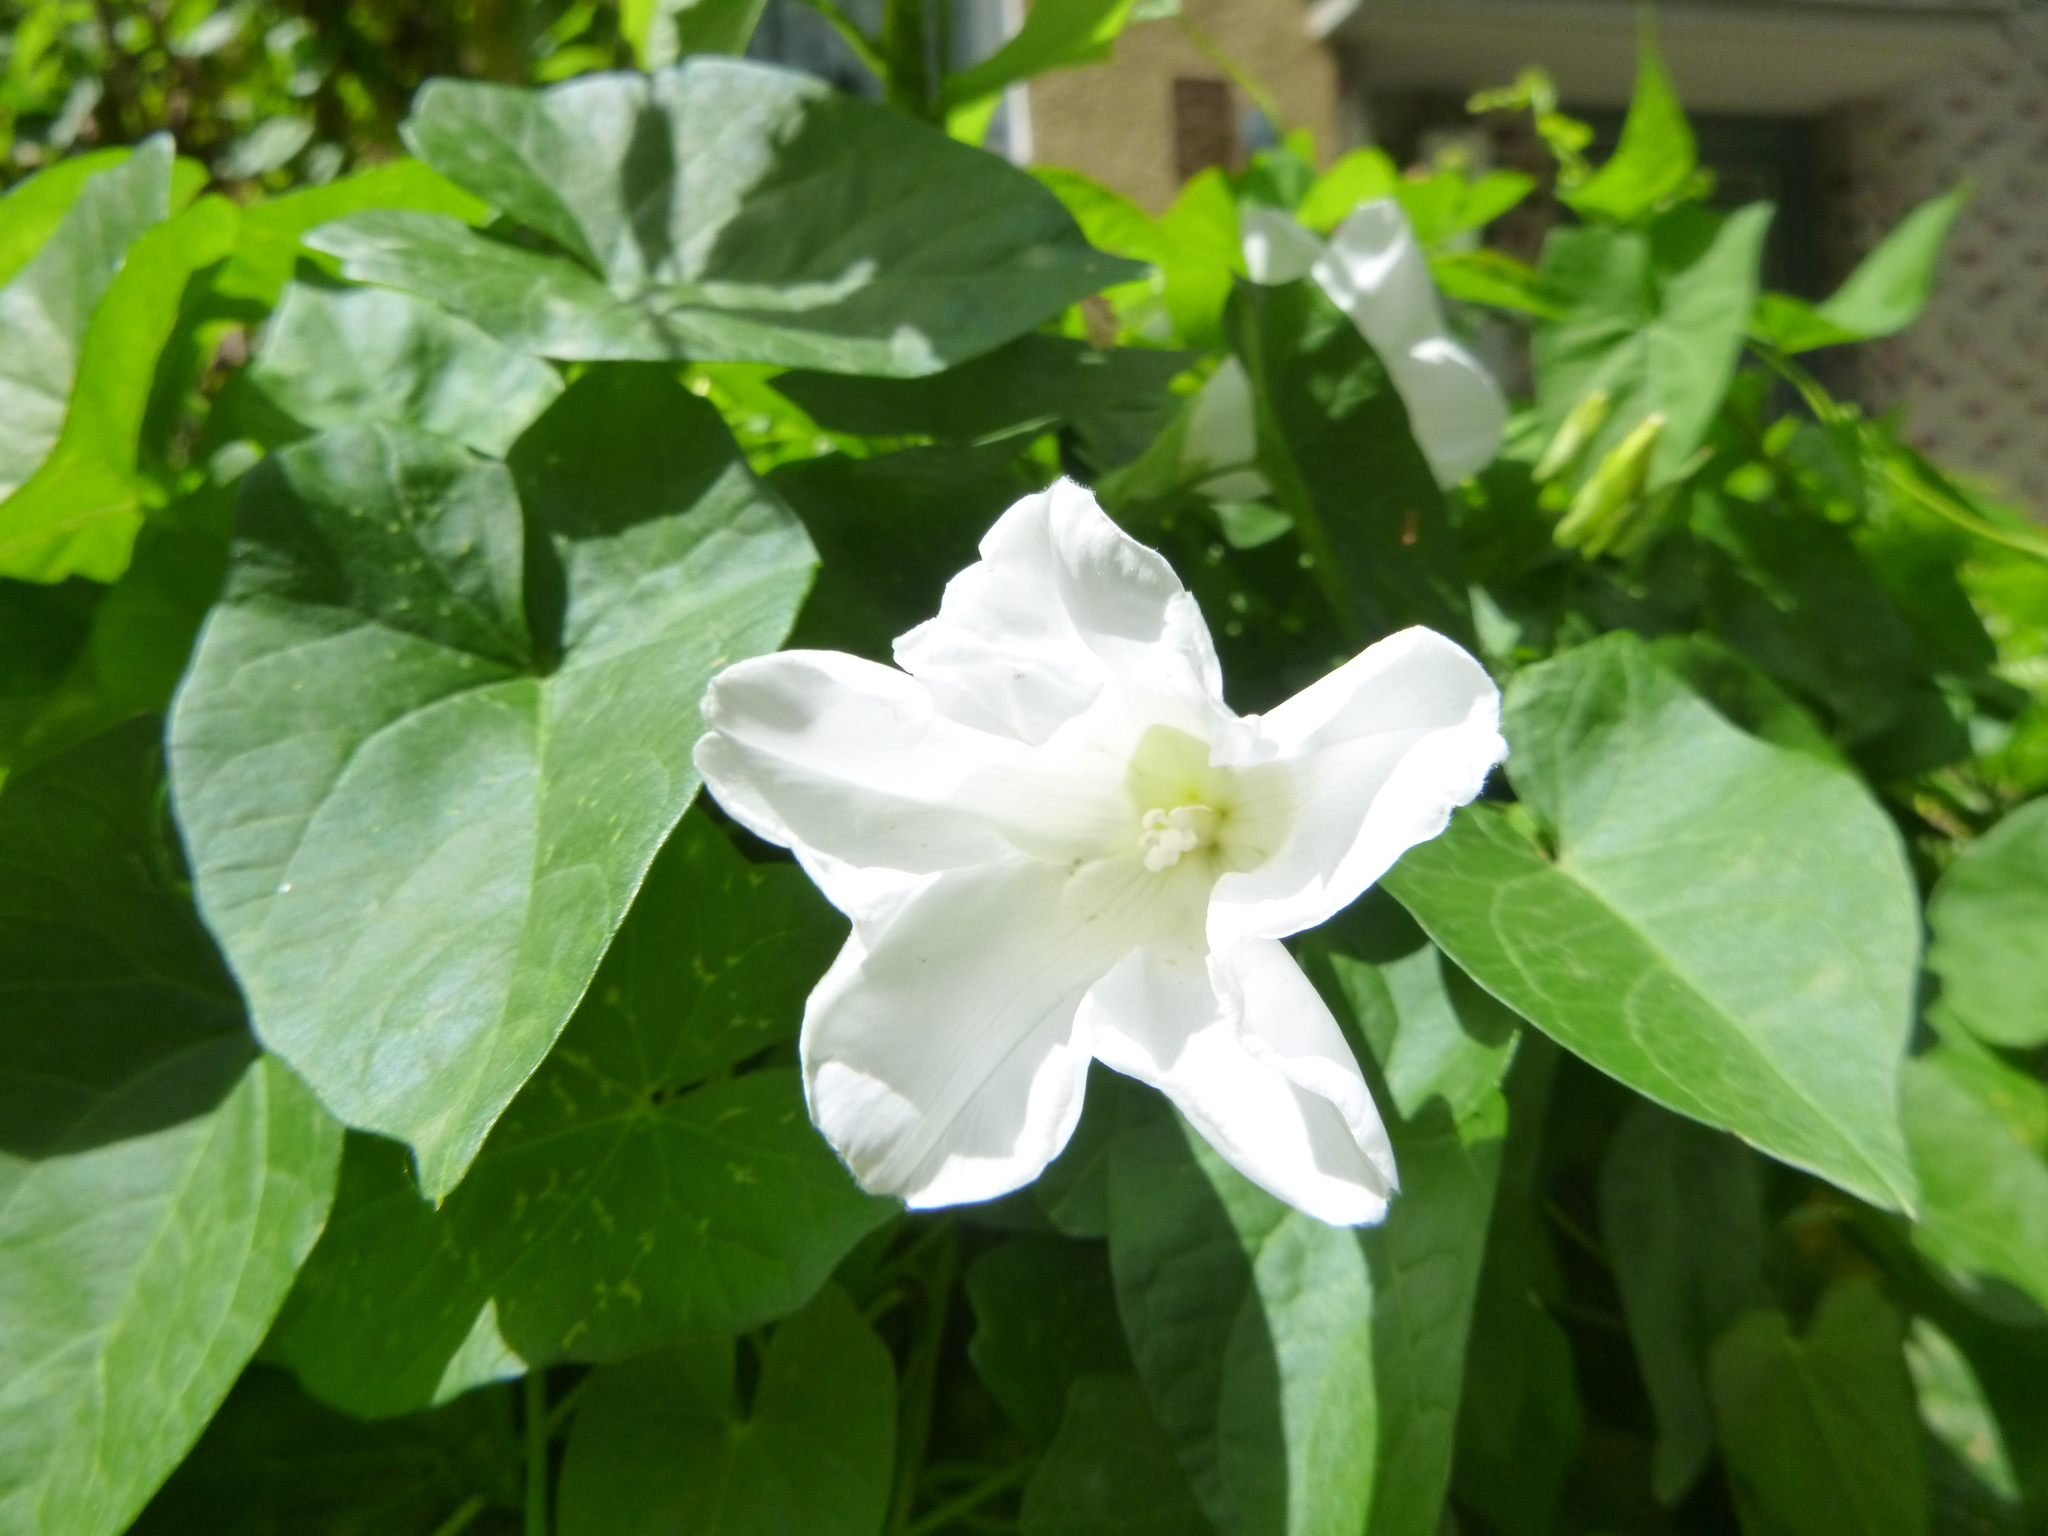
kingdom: Plantae
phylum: Tracheophyta
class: Magnoliopsida
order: Solanales
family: Convolvulaceae
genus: Calystegia
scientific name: Calystegia sepium
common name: Hedge bindweed
